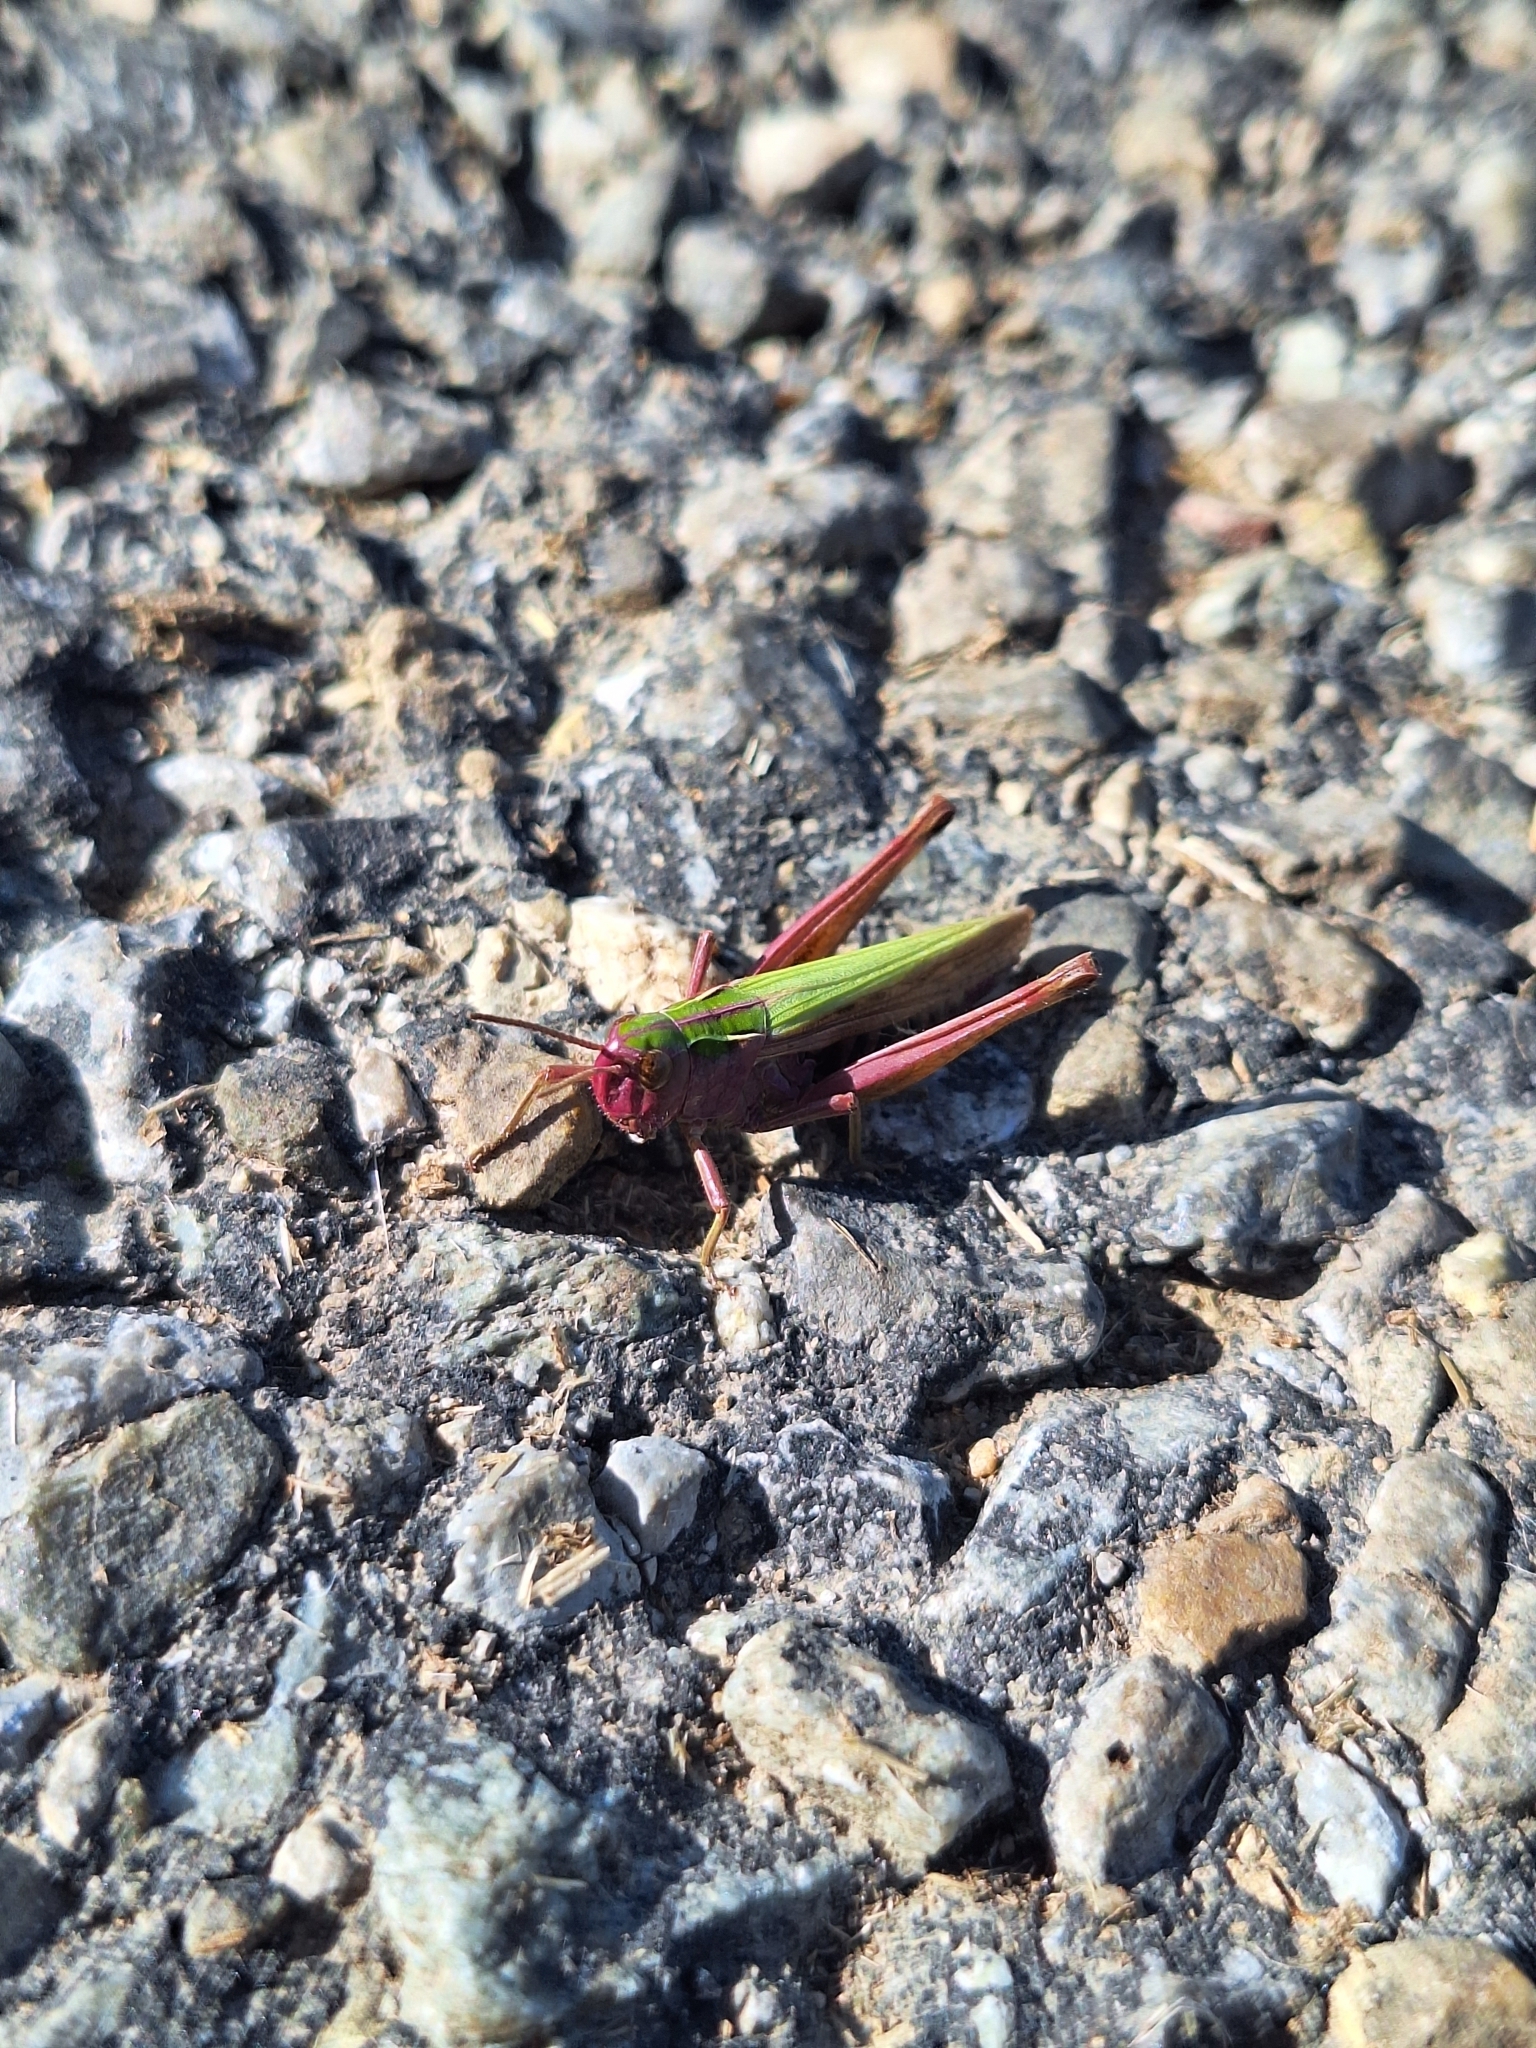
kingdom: Animalia
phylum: Arthropoda
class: Insecta
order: Orthoptera
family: Acrididae
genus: Omocestus
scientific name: Omocestus viridulus
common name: Common green grasshopper
